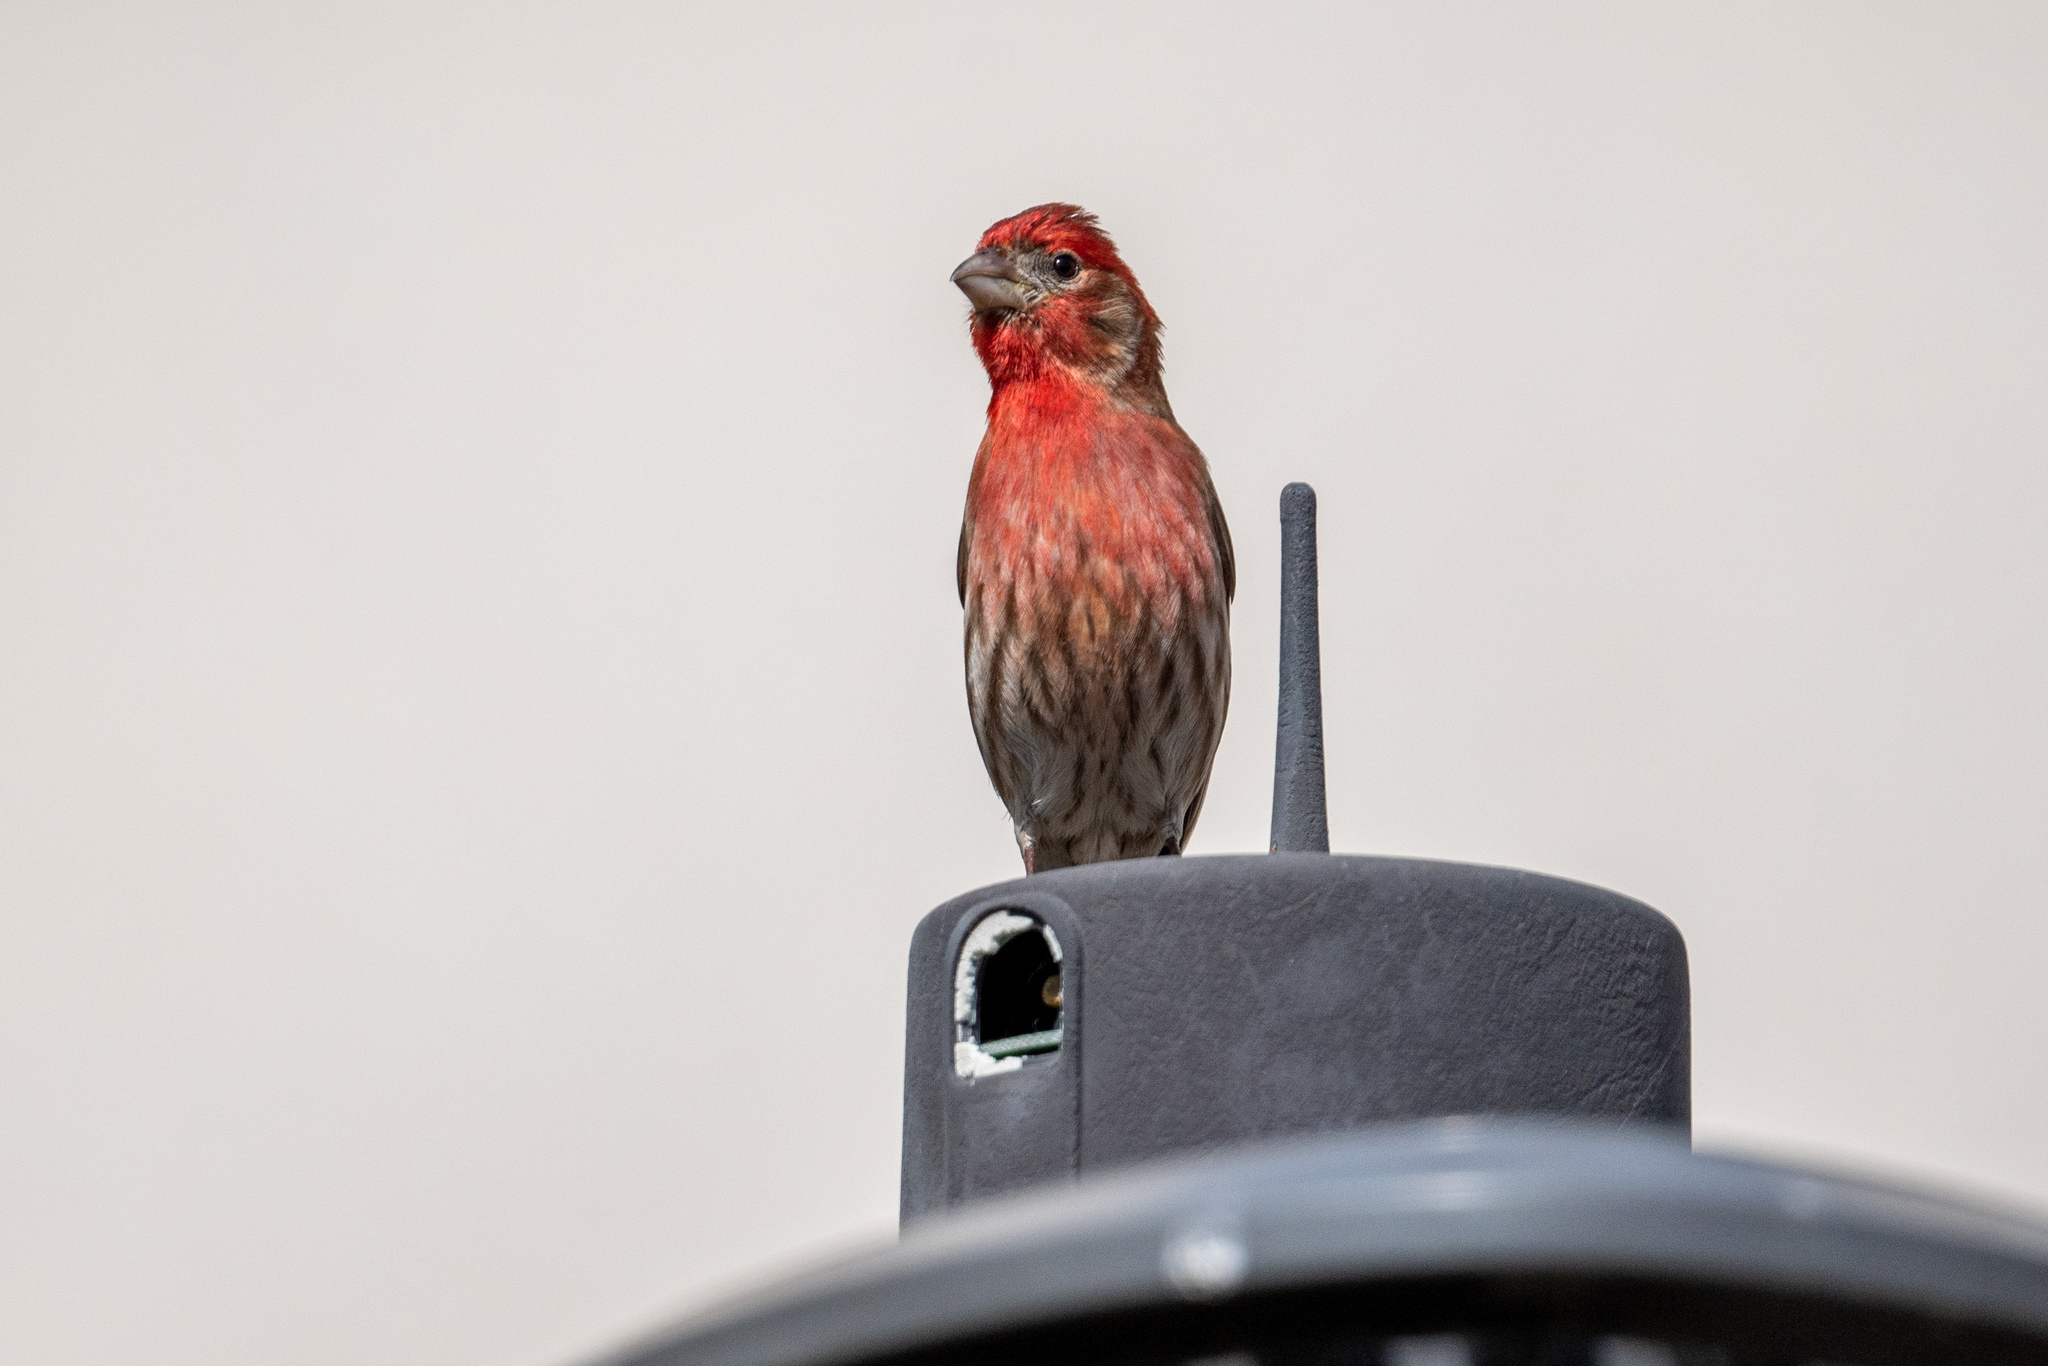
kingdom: Animalia
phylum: Chordata
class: Aves
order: Passeriformes
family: Fringillidae
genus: Haemorhous
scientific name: Haemorhous mexicanus
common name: House finch
